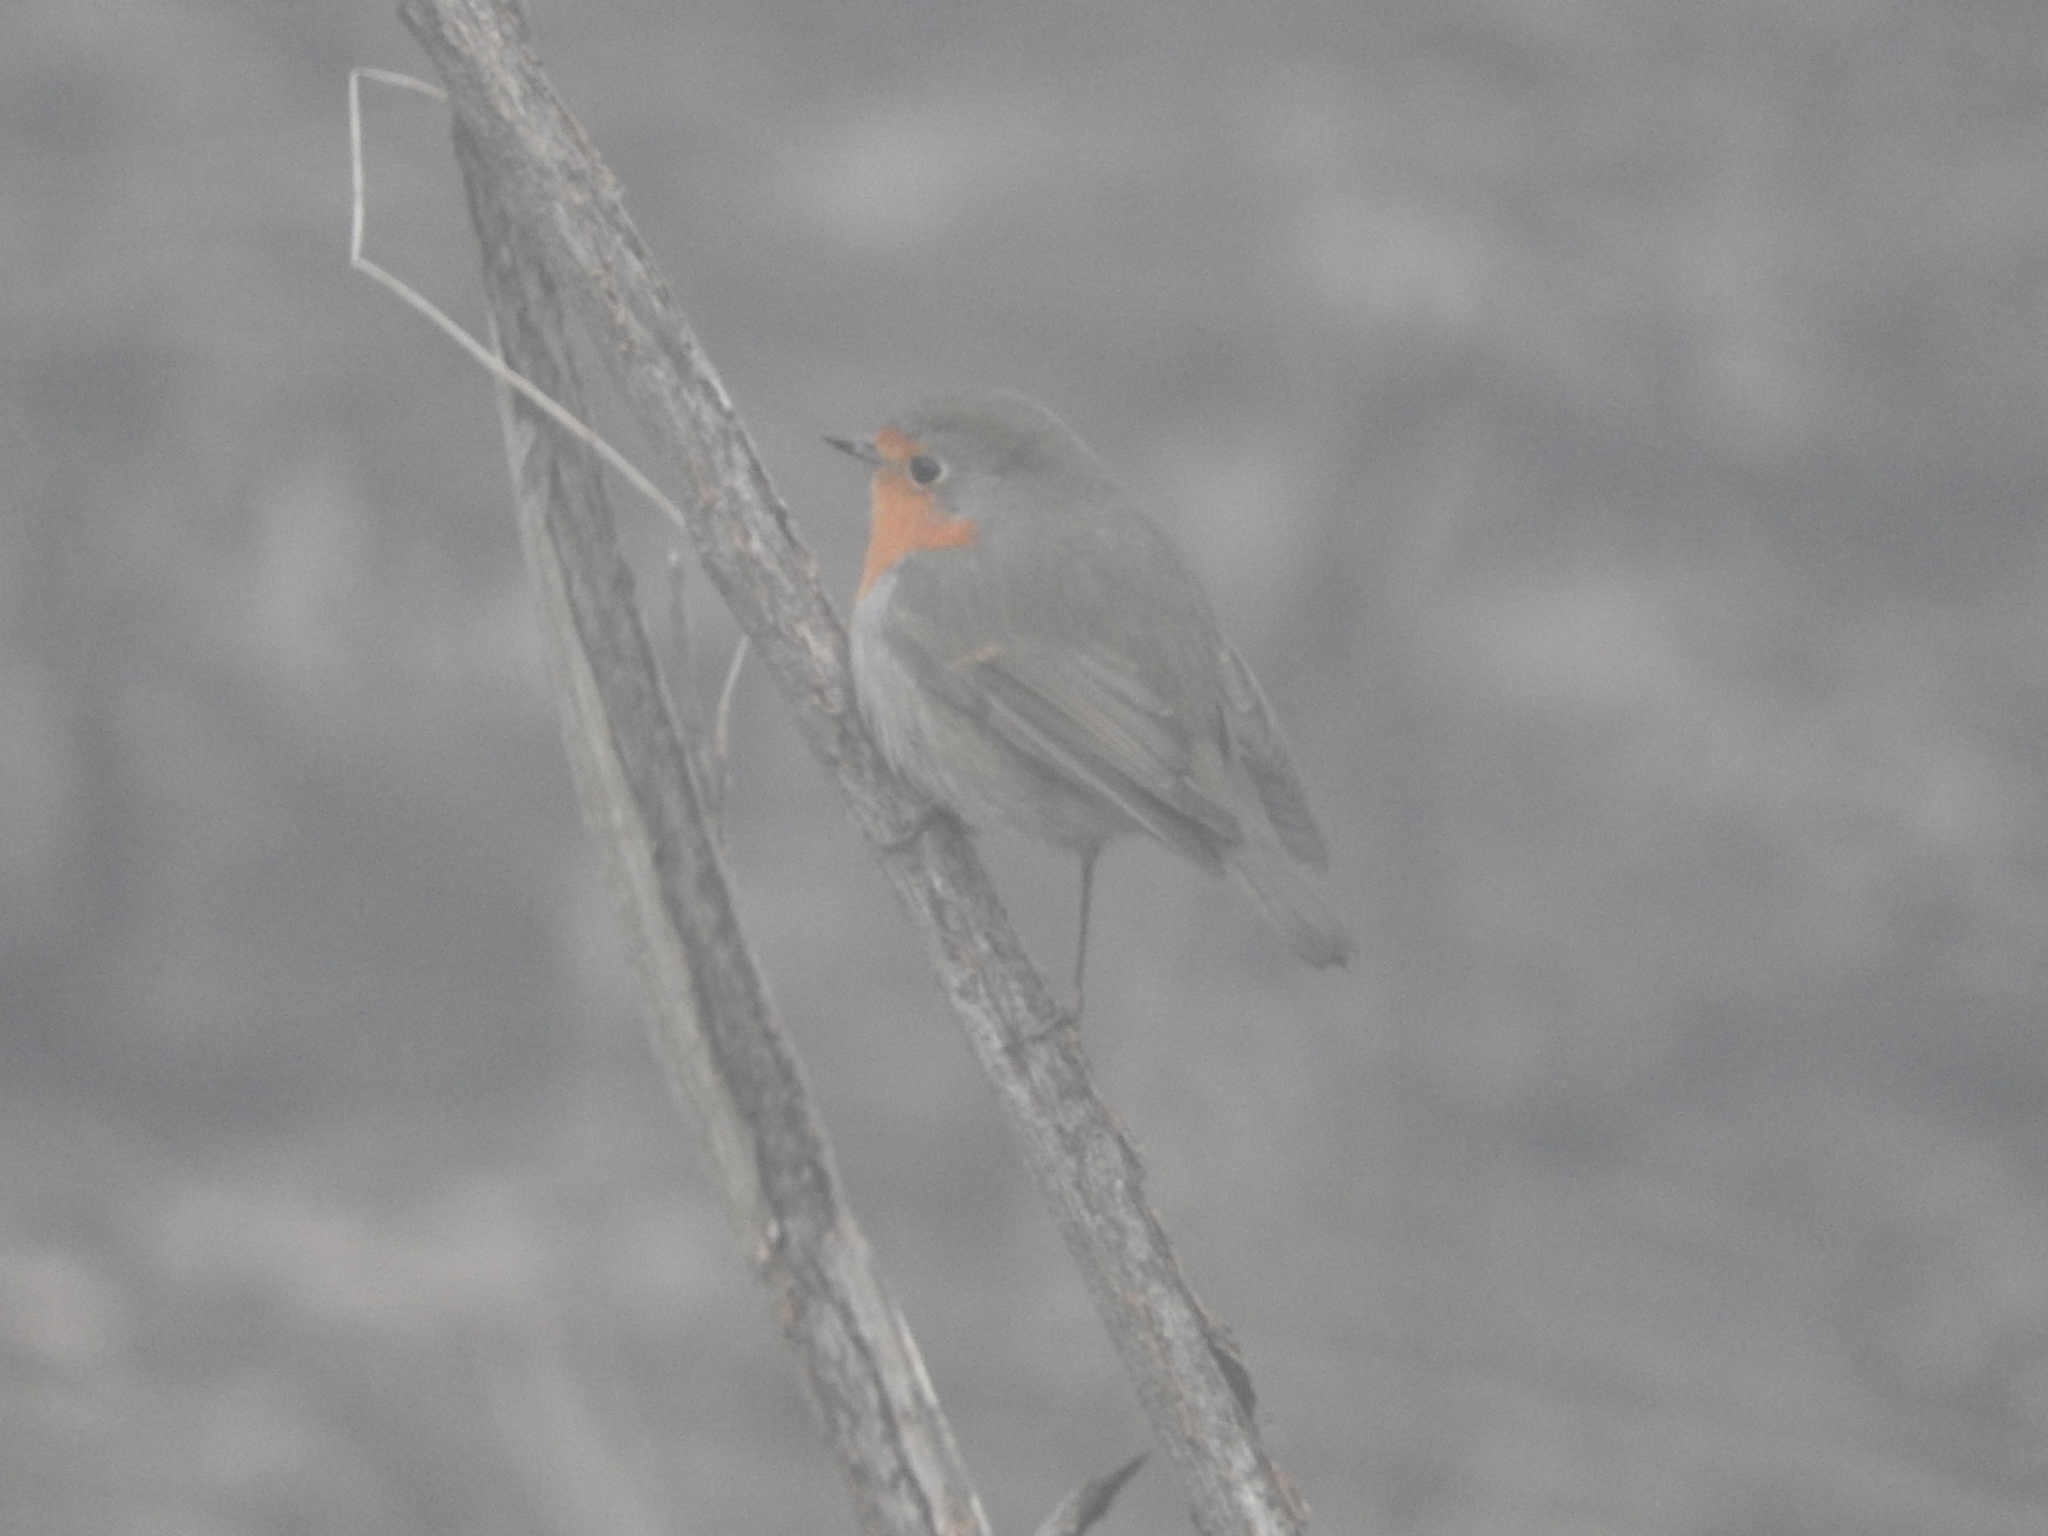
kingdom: Animalia
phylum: Chordata
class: Aves
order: Passeriformes
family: Muscicapidae
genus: Erithacus
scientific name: Erithacus rubecula
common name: European robin
